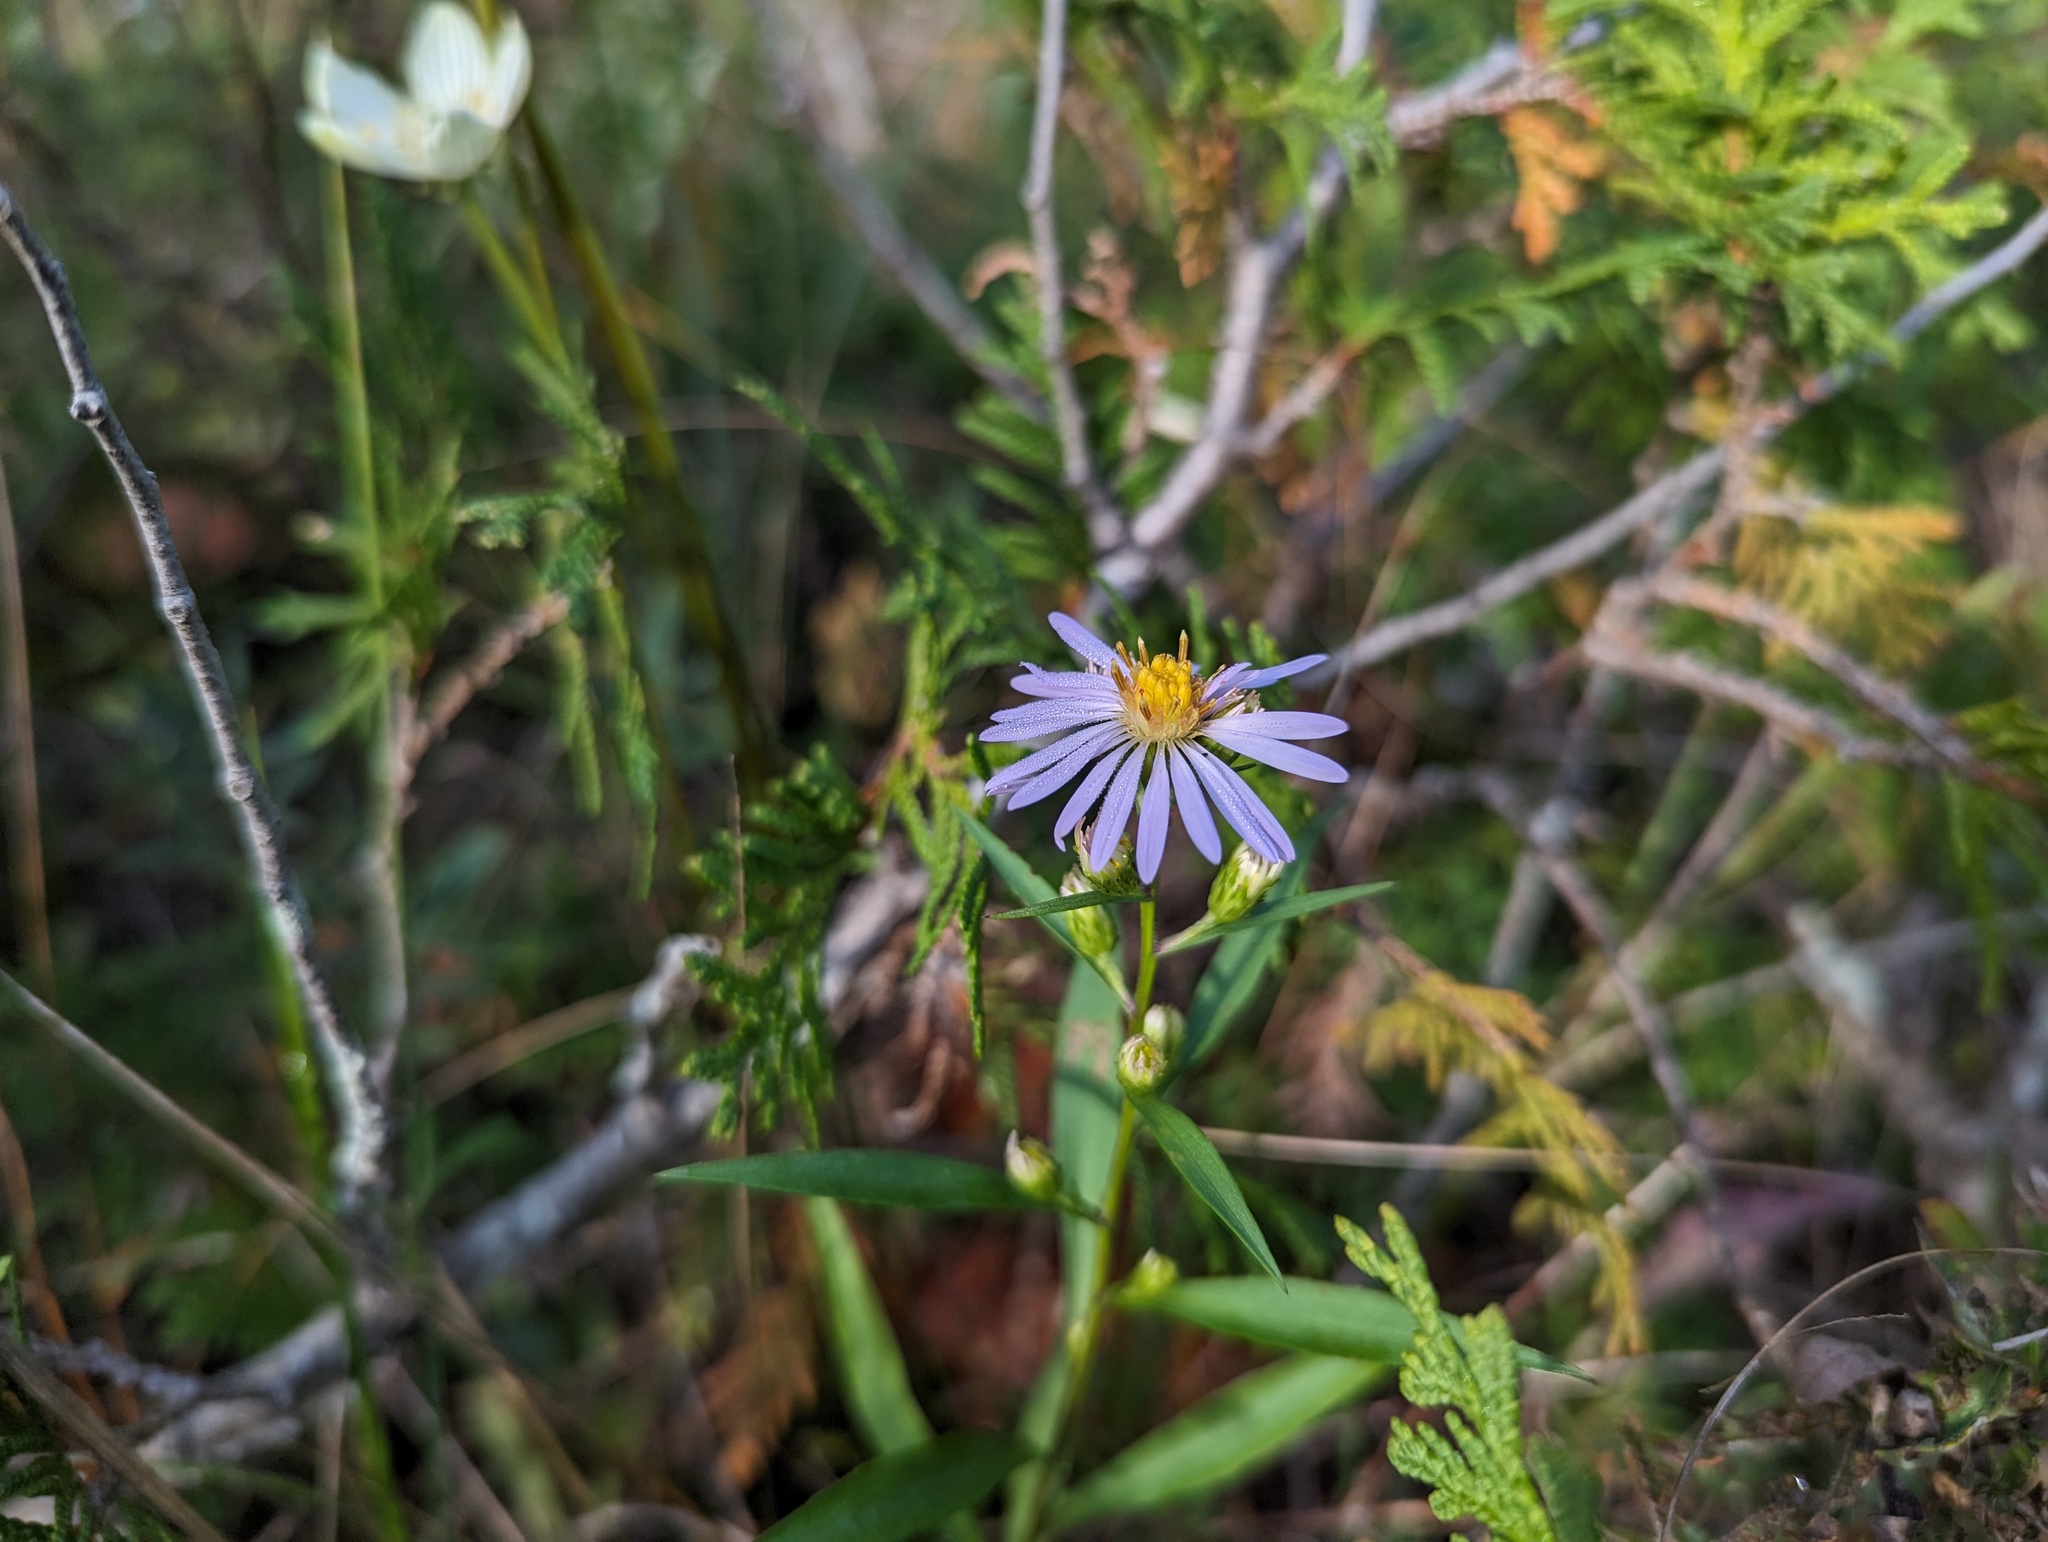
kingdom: Plantae
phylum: Tracheophyta
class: Magnoliopsida
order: Asterales
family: Asteraceae
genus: Symphyotrichum
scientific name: Symphyotrichum boreale
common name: Northern bog aster
